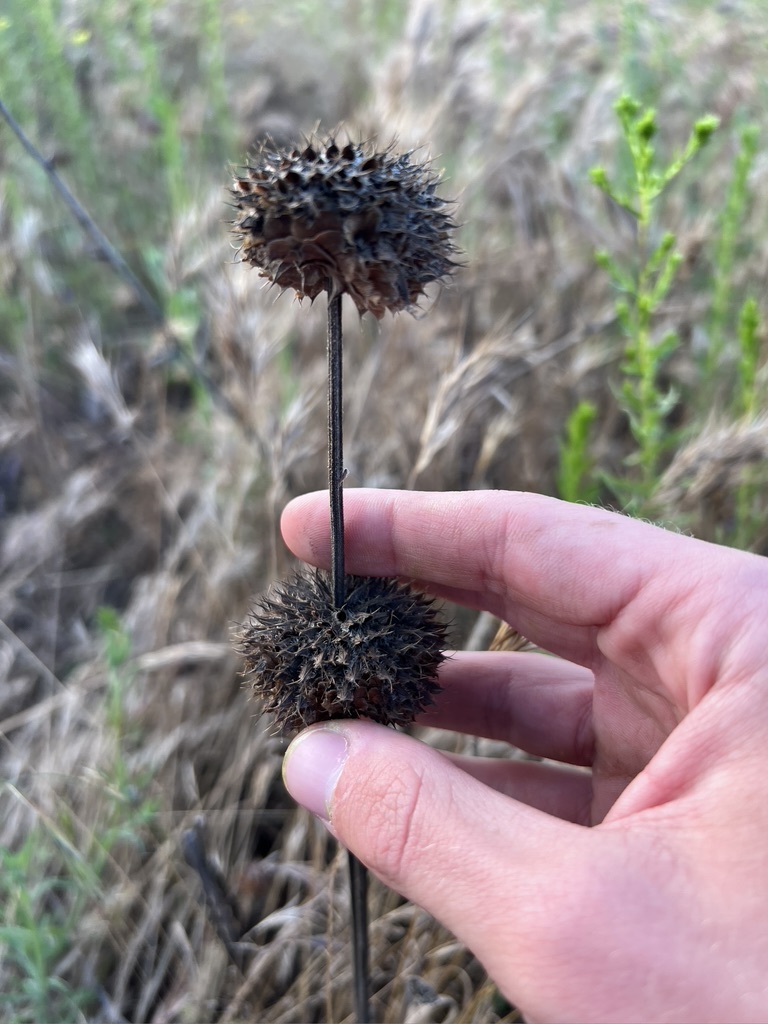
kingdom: Plantae
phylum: Tracheophyta
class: Magnoliopsida
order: Lamiales
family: Lamiaceae
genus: Salvia
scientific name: Salvia columbariae
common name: Chia
